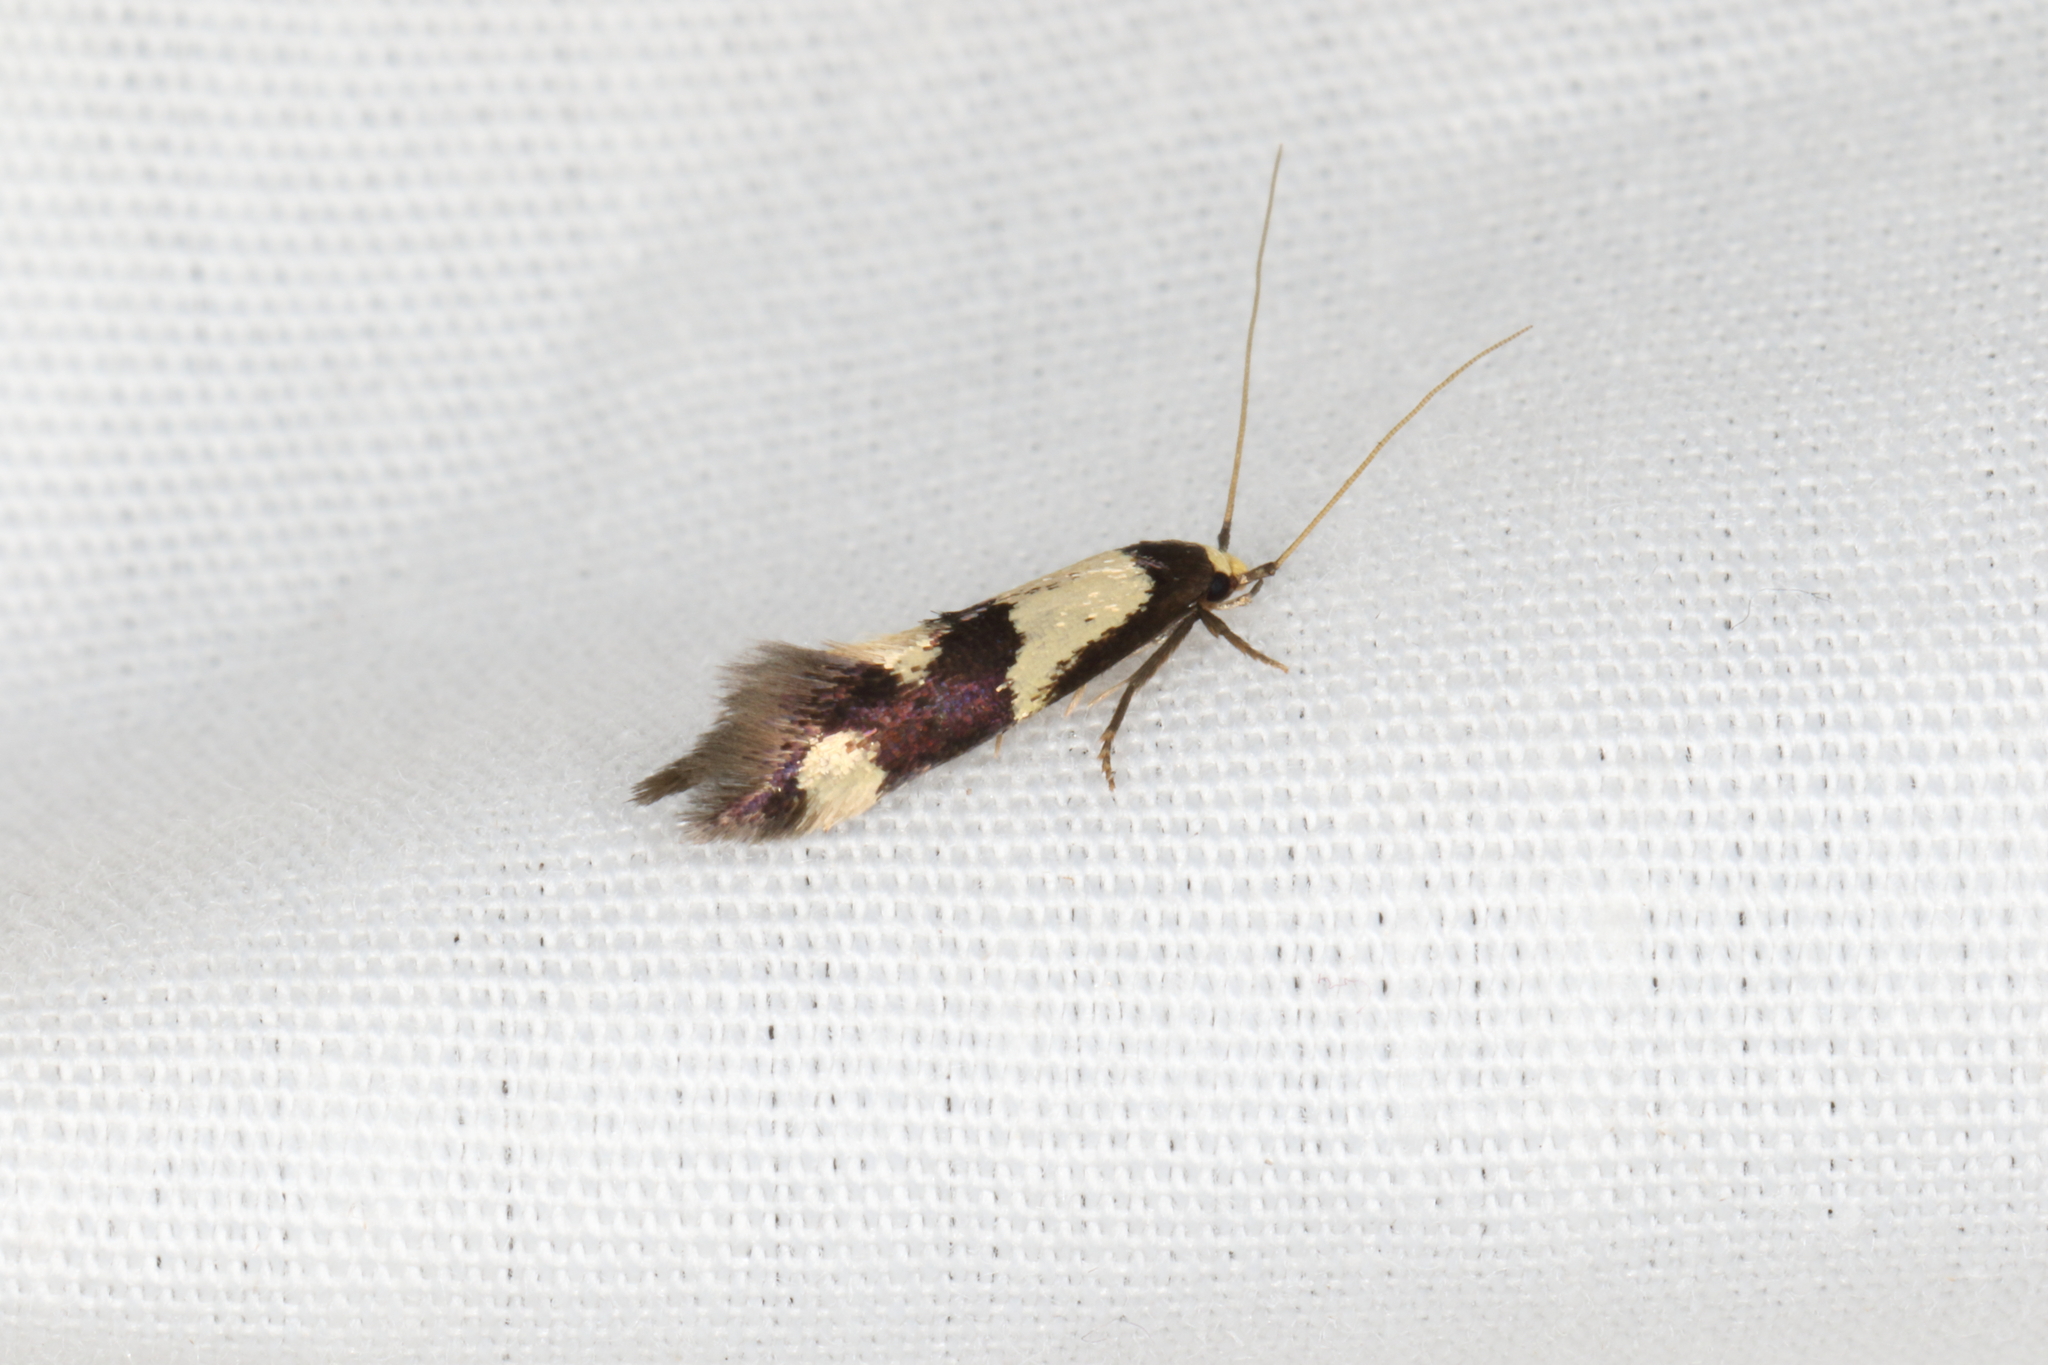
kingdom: Animalia
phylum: Arthropoda
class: Insecta
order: Lepidoptera
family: Tineidae
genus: Opogona
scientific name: Opogona comptella
